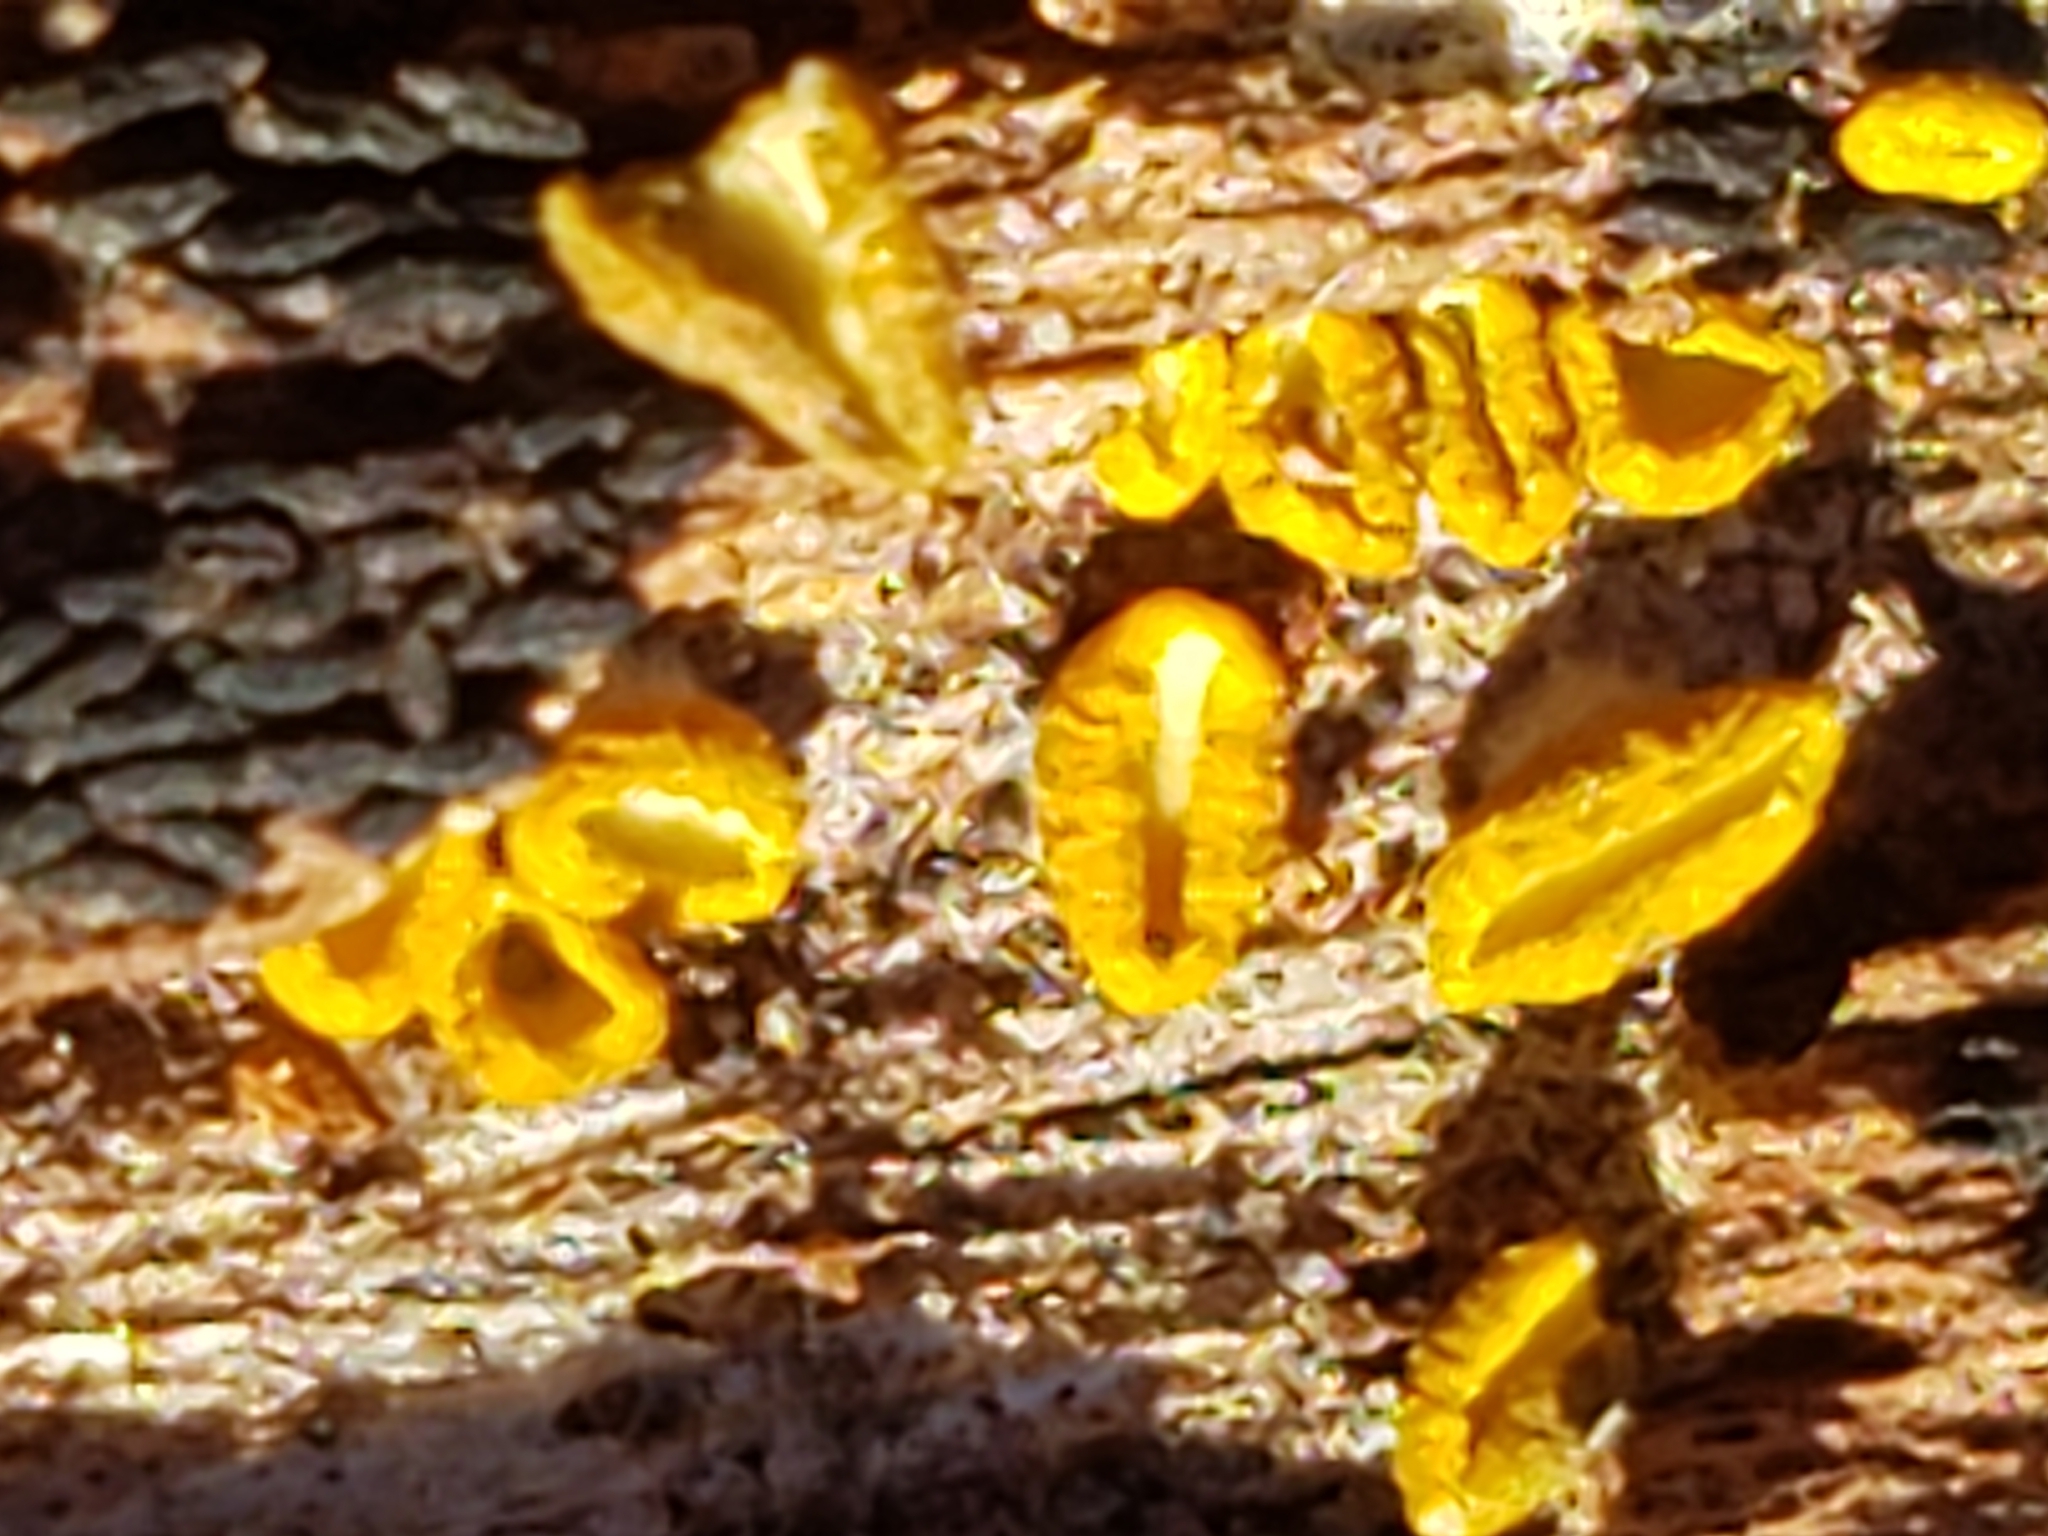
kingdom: Fungi
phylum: Ascomycota
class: Leotiomycetes
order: Helotiales
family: Chlorospleniaceae
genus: Chlorosplenium
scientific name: Chlorosplenium chlora
